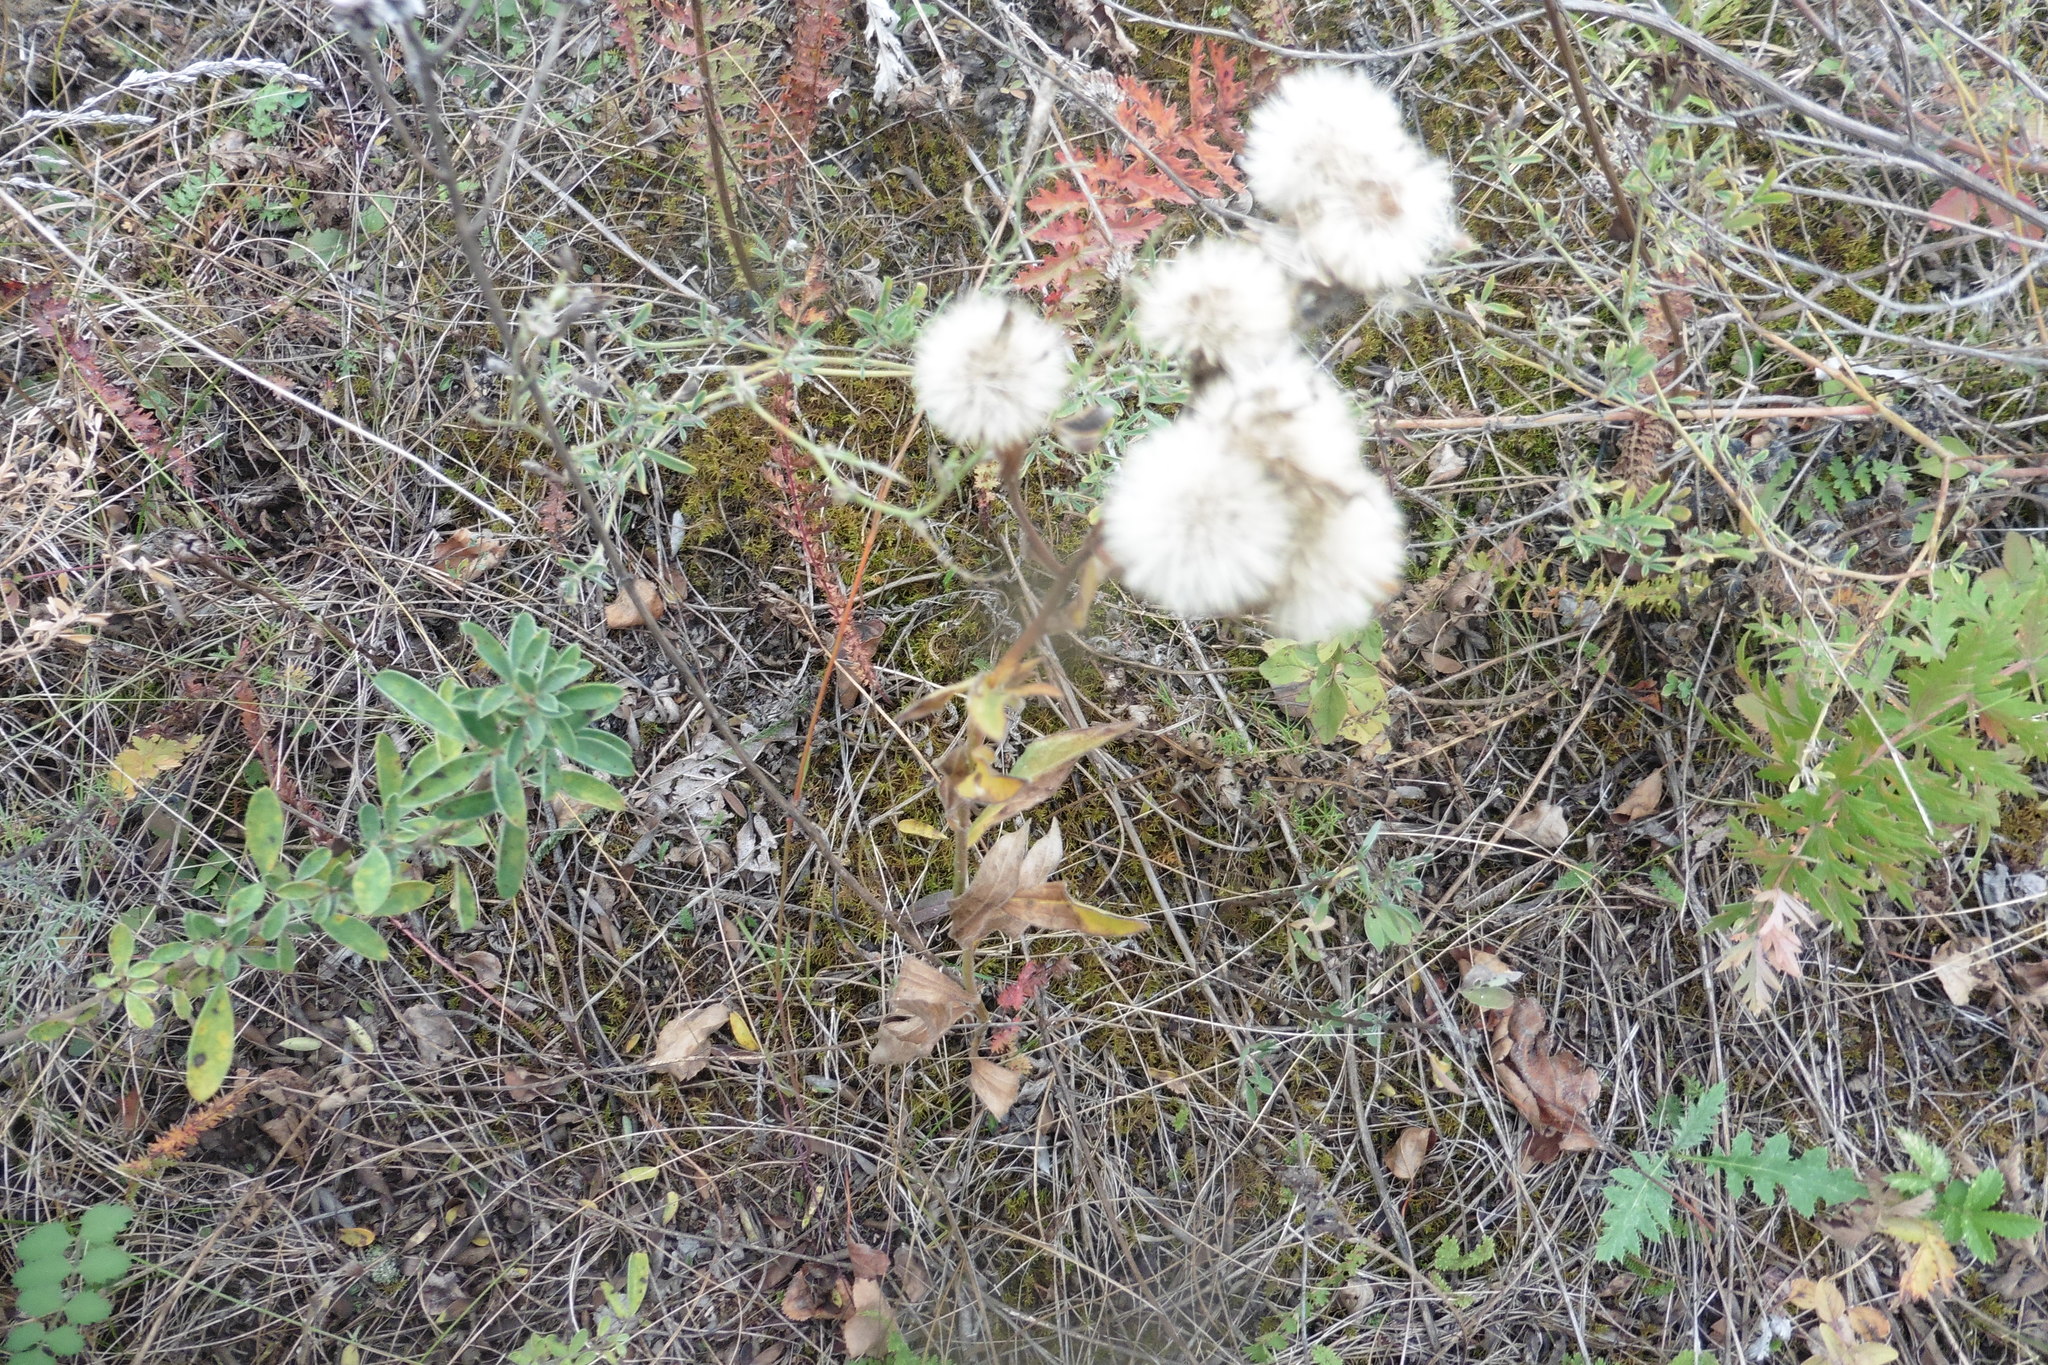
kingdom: Plantae
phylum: Tracheophyta
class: Magnoliopsida
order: Asterales
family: Asteraceae
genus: Erigeron
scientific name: Erigeron acris
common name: Blue fleabane
